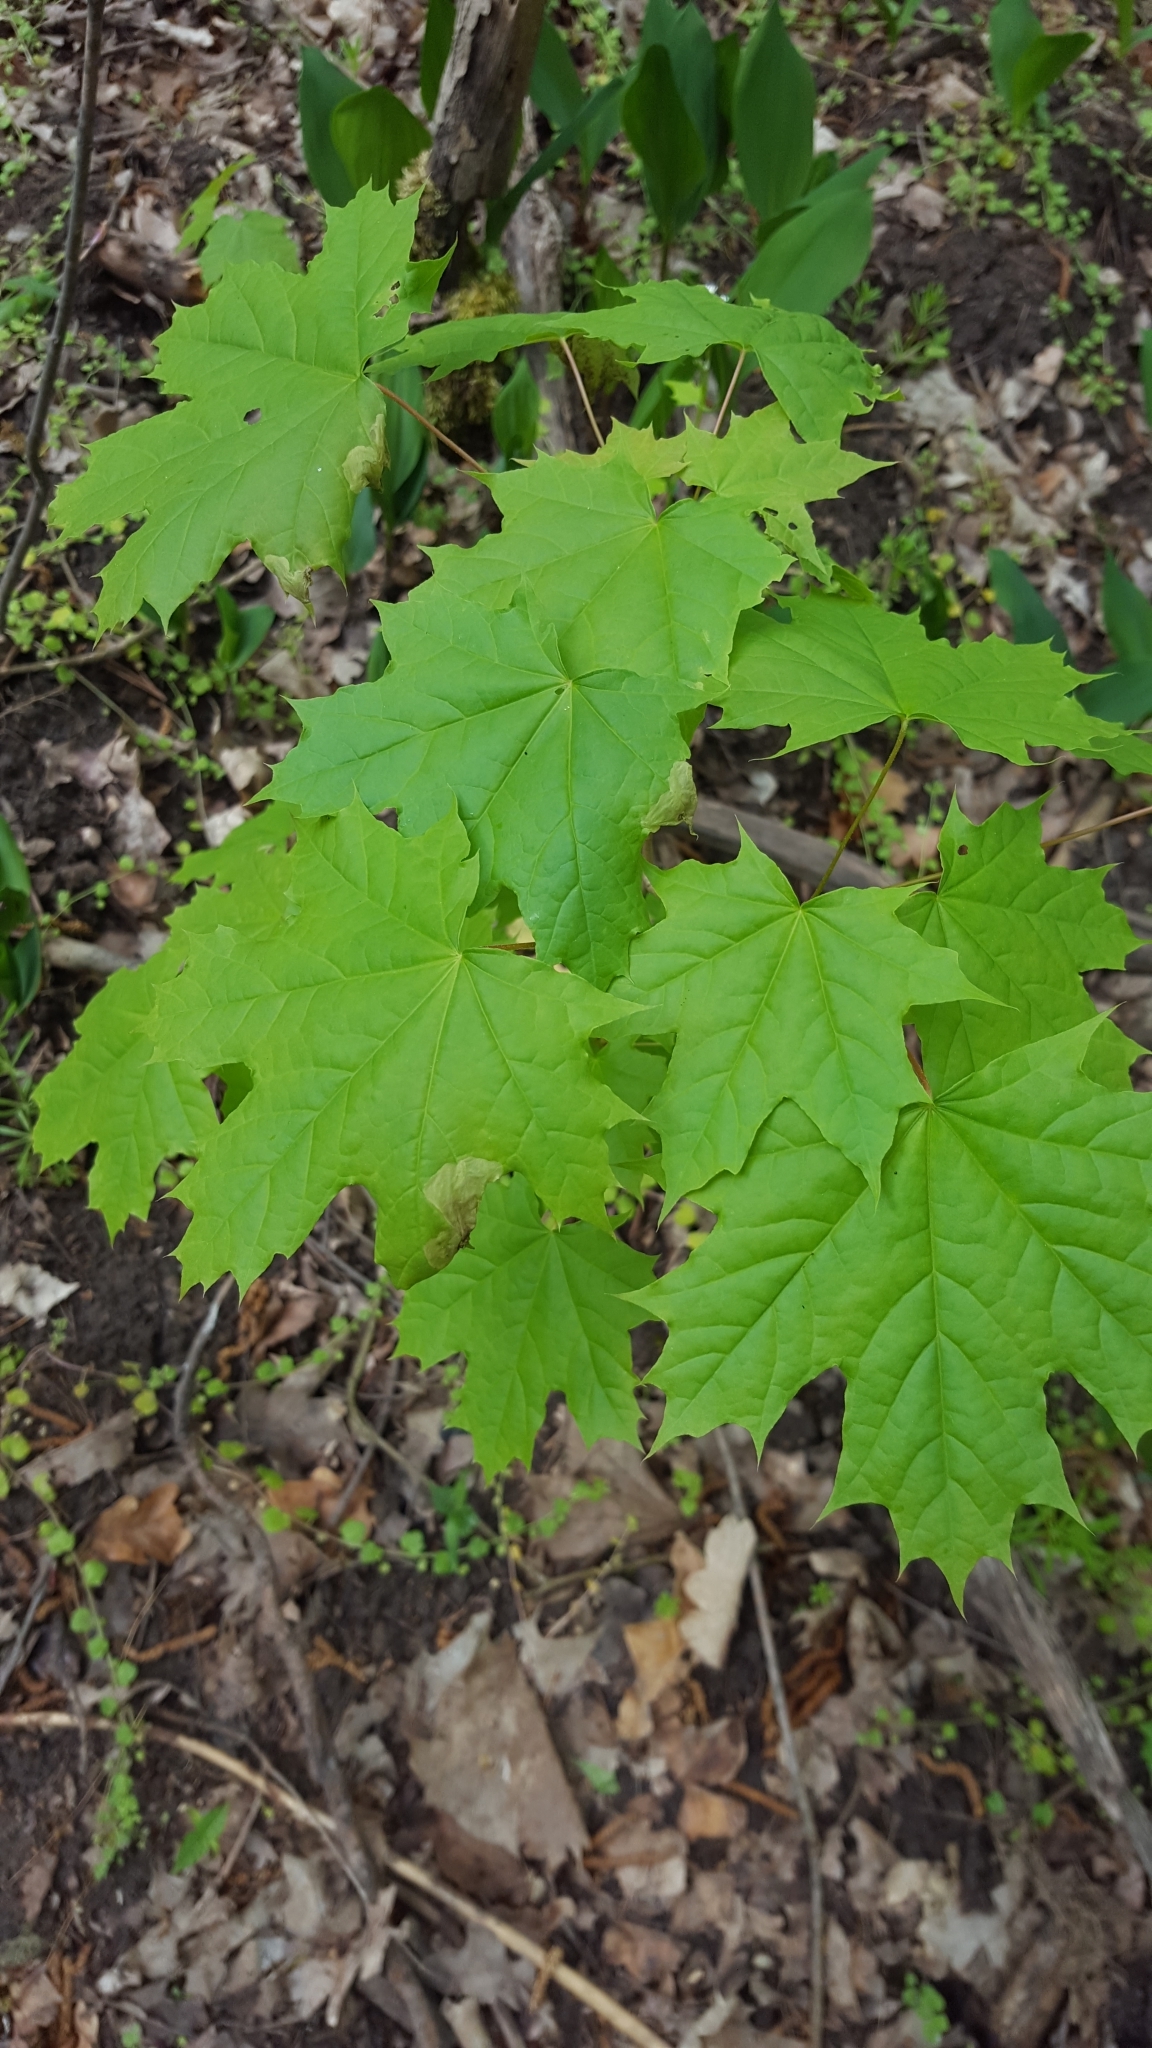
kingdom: Plantae
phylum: Tracheophyta
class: Magnoliopsida
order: Sapindales
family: Sapindaceae
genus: Acer
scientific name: Acer platanoides
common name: Norway maple
